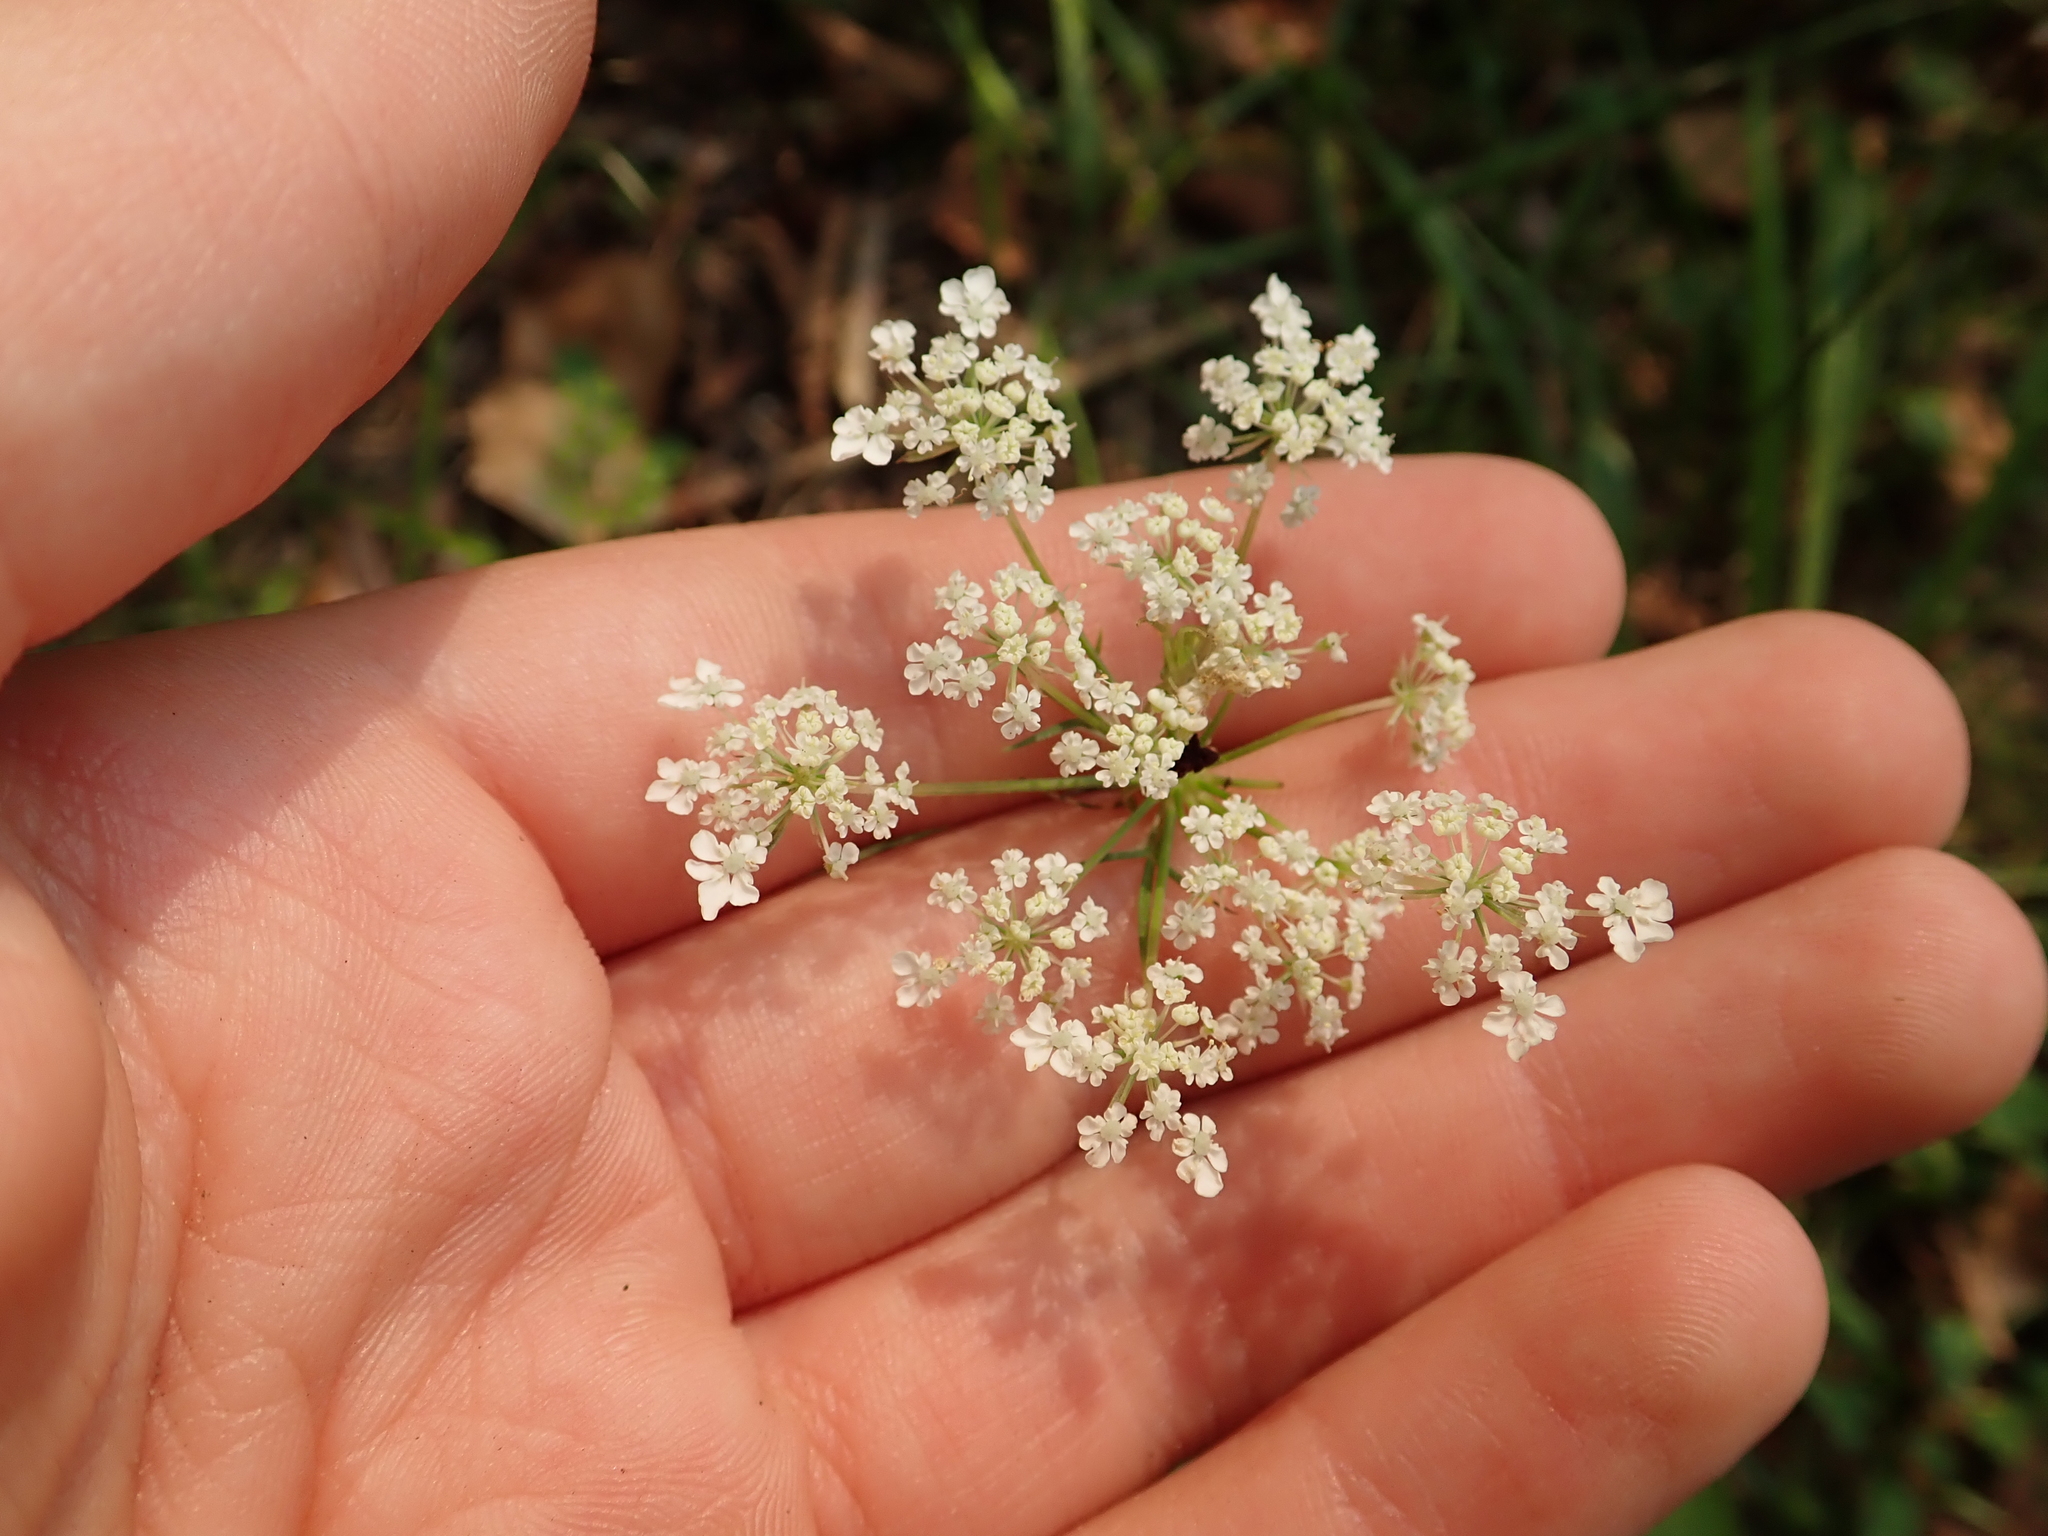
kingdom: Plantae
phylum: Tracheophyta
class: Magnoliopsida
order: Apiales
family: Apiaceae
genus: Daucus
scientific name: Daucus carota
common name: Wild carrot
